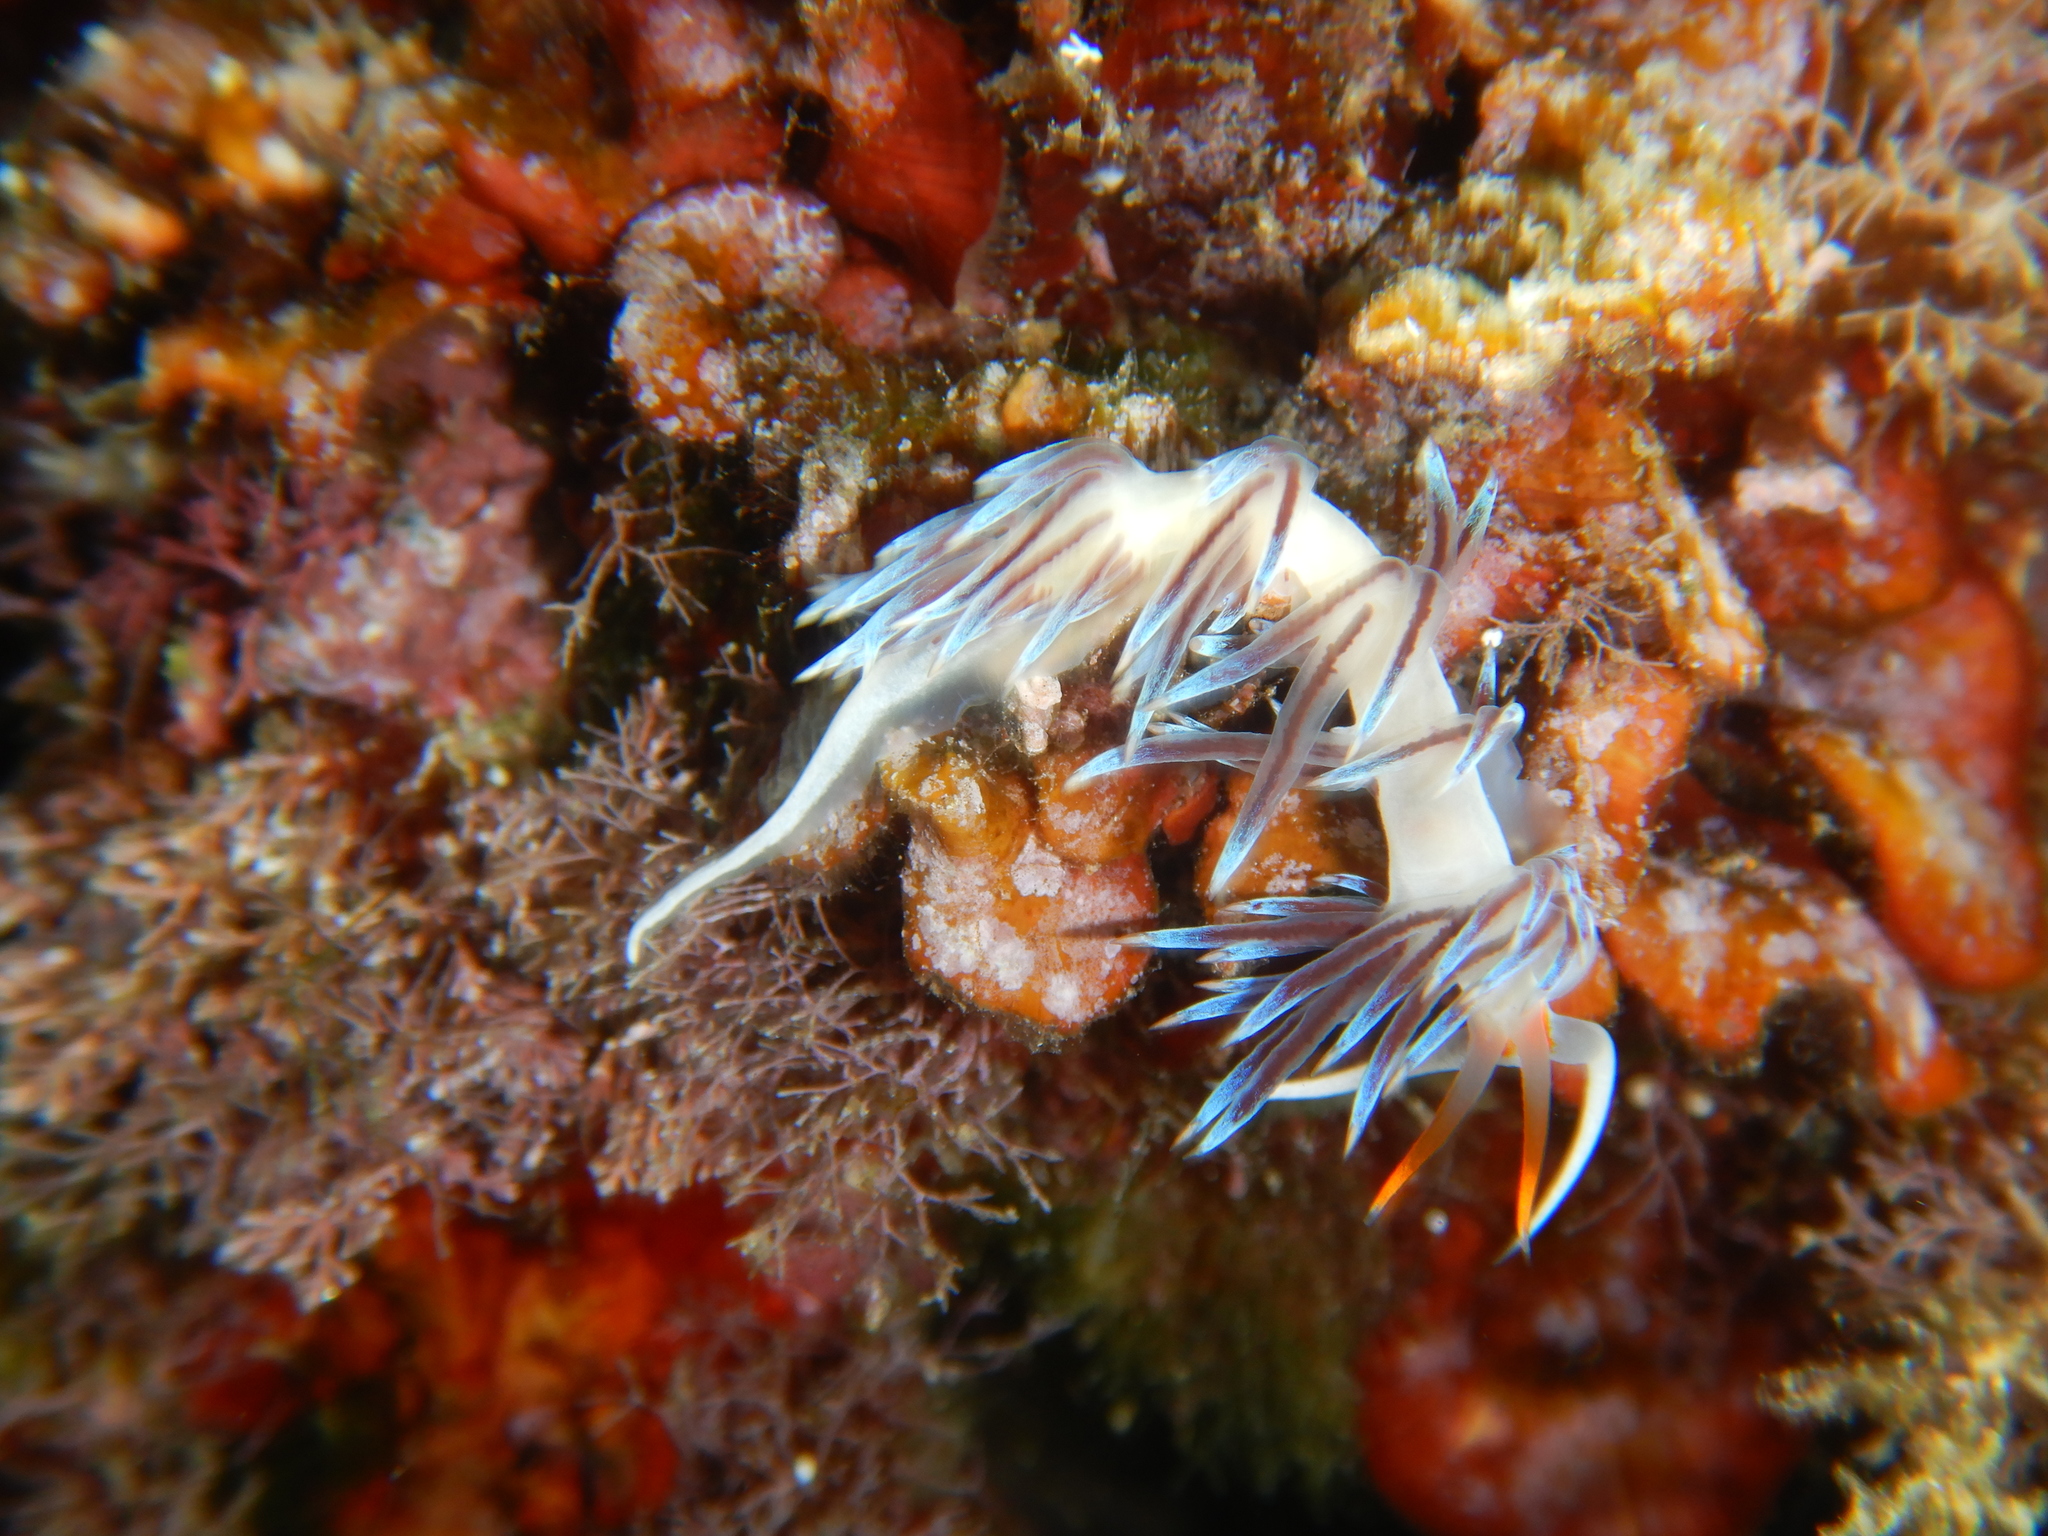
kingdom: Animalia
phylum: Mollusca
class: Gastropoda
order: Nudibranchia
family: Facelinidae
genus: Cratena
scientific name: Cratena peregrina
